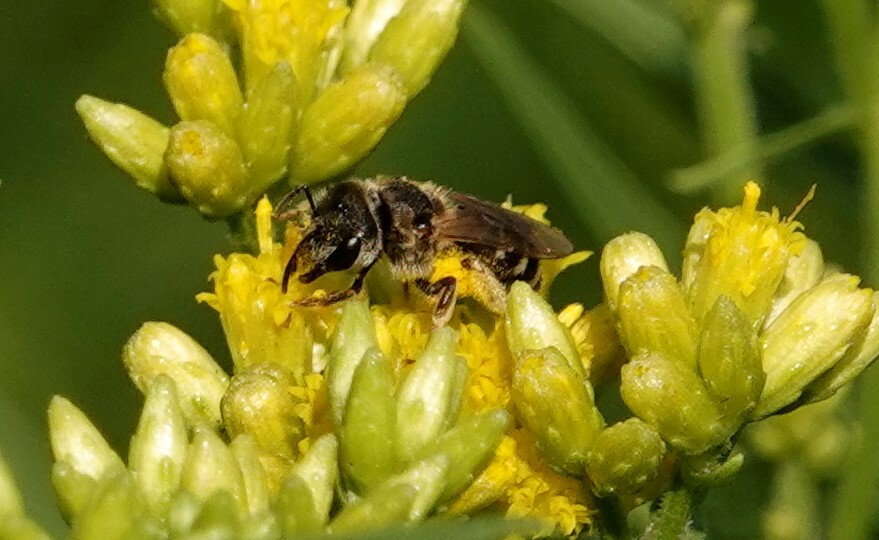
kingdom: Animalia
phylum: Arthropoda
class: Insecta
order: Hymenoptera
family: Halictidae
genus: Halictus
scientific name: Halictus ligatus
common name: Ligated furrow bee
